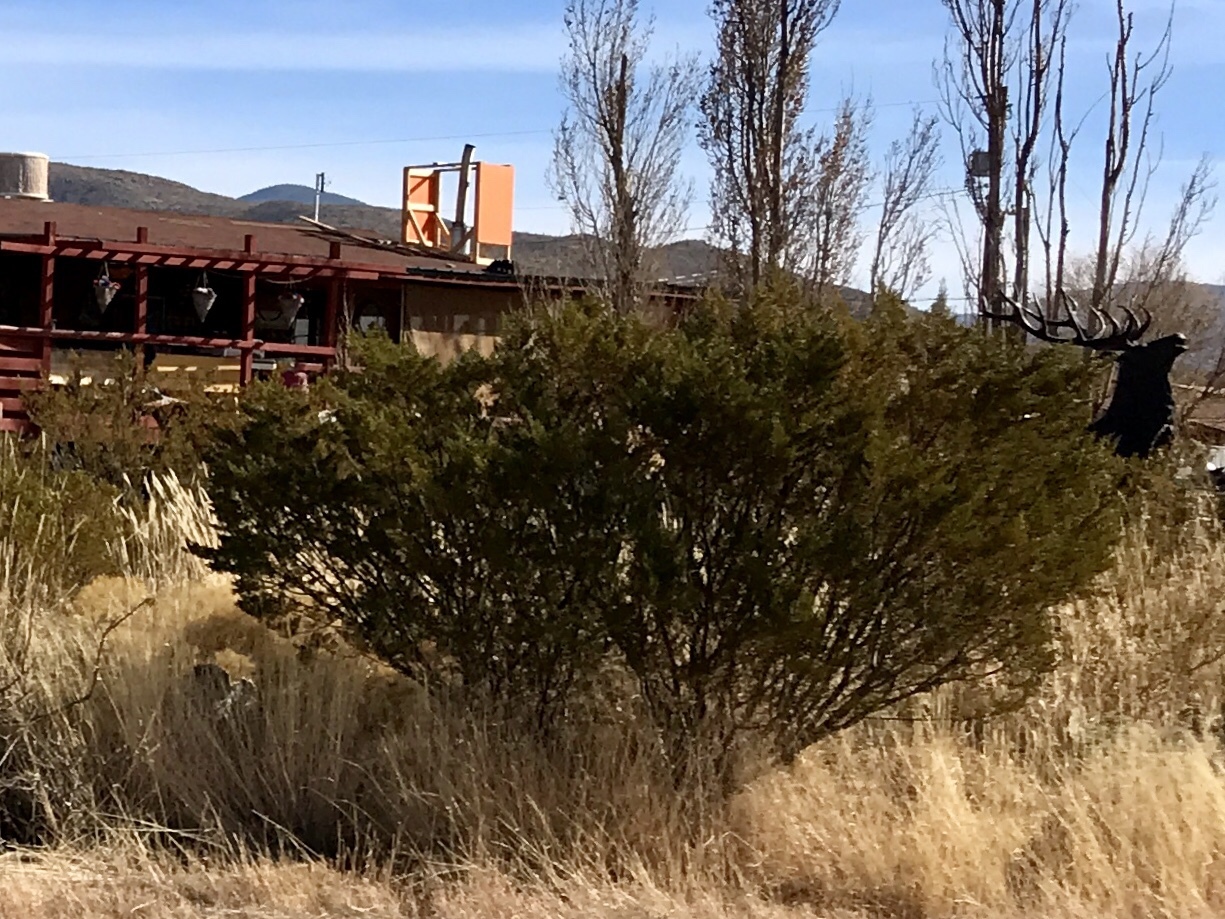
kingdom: Plantae
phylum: Tracheophyta
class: Magnoliopsida
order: Zygophyllales
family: Zygophyllaceae
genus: Larrea
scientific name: Larrea tridentata
